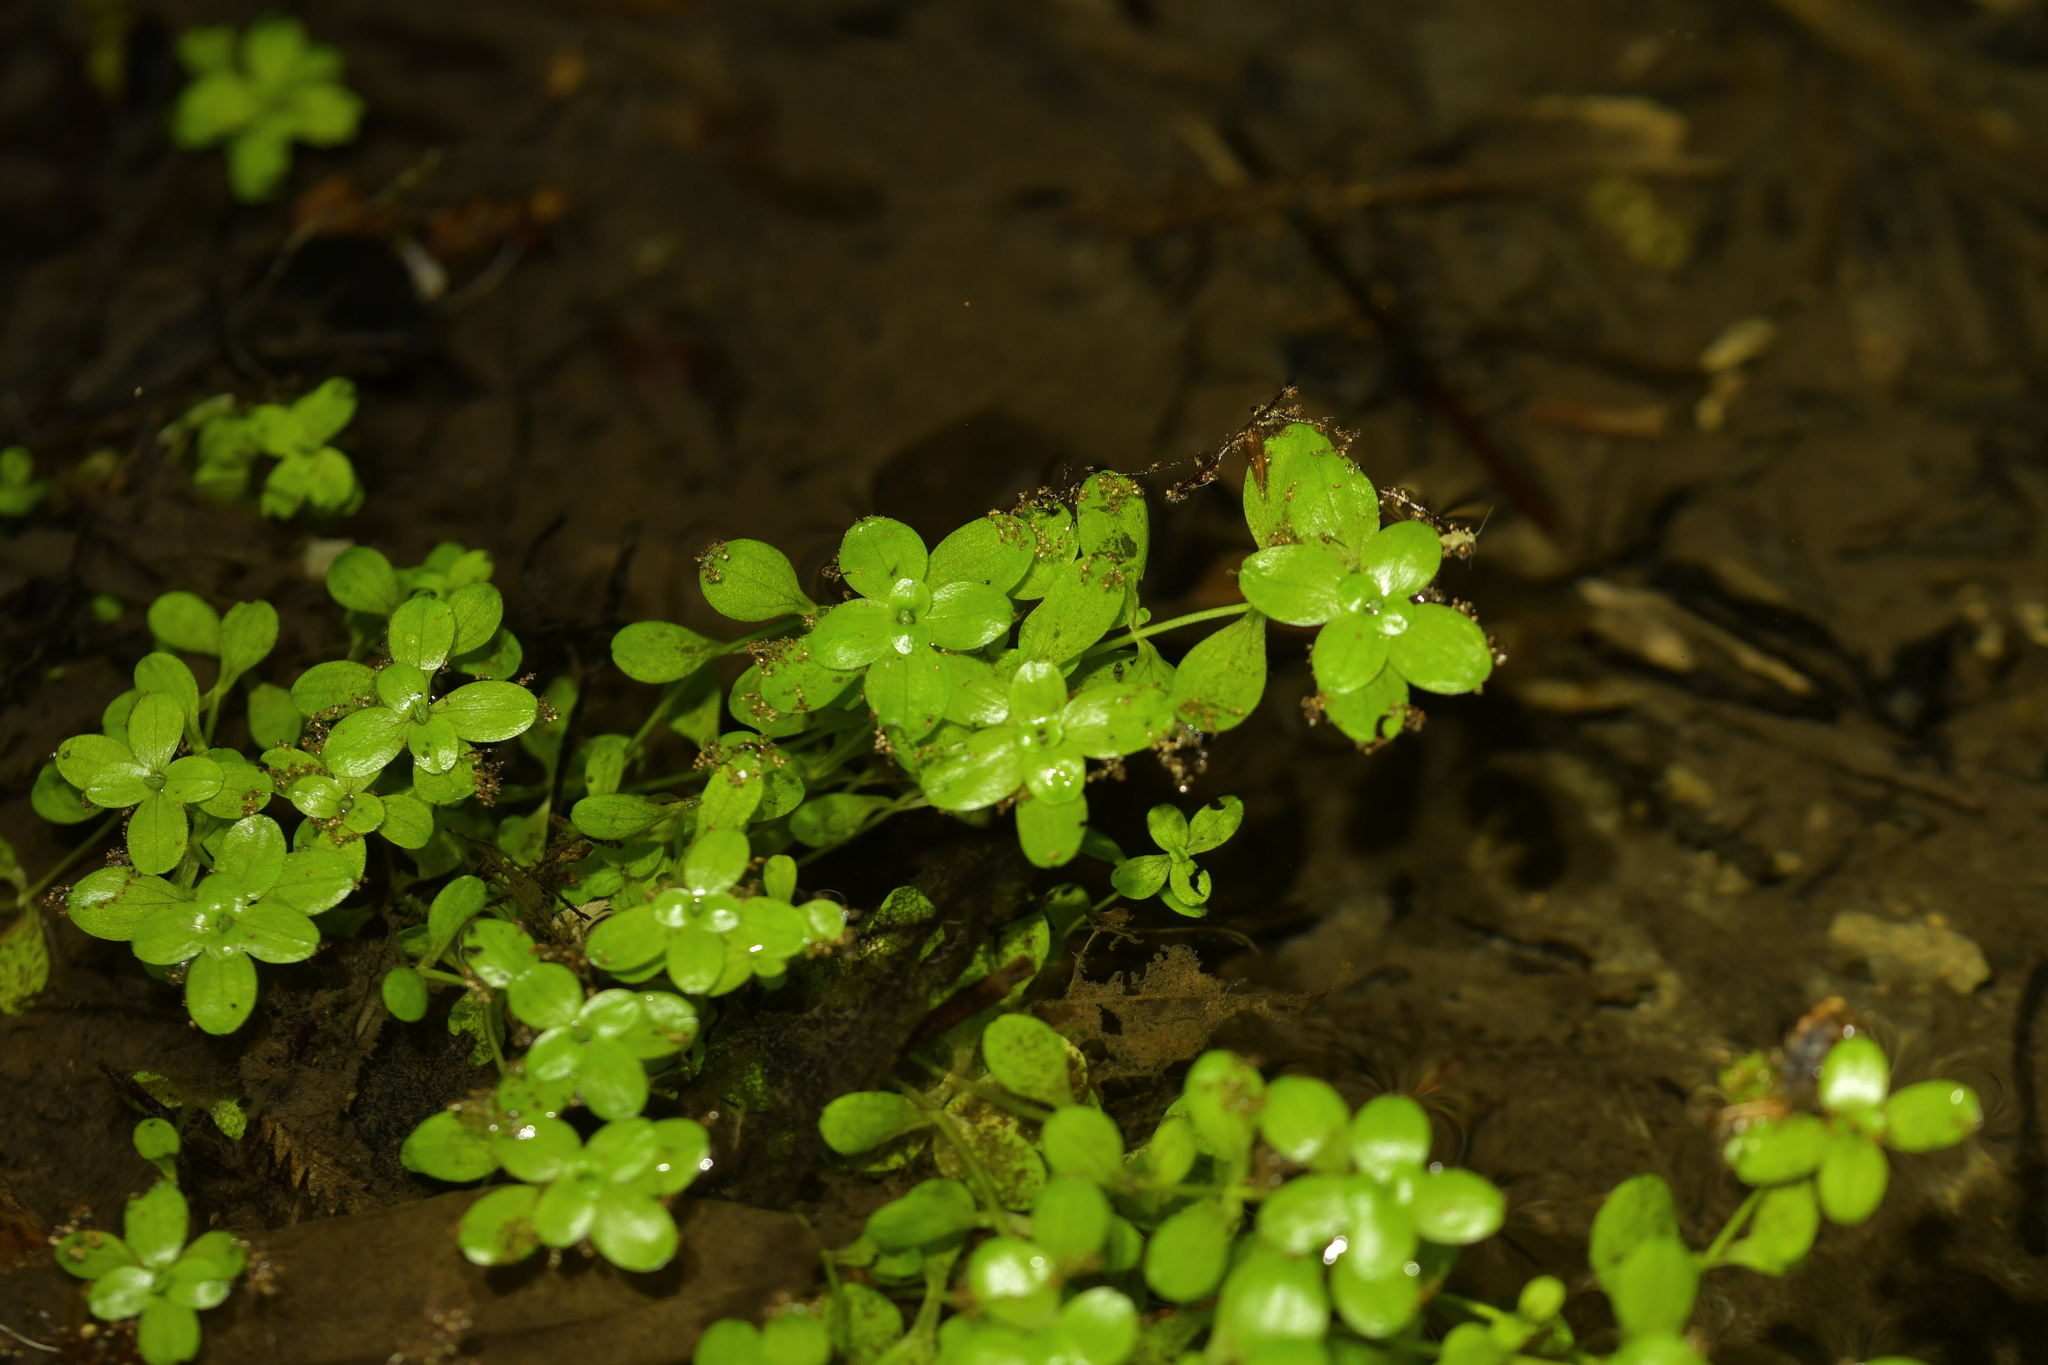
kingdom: Plantae
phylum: Tracheophyta
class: Magnoliopsida
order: Lamiales
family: Plantaginaceae
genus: Callitriche
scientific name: Callitriche stagnalis
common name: Common water-starwort
